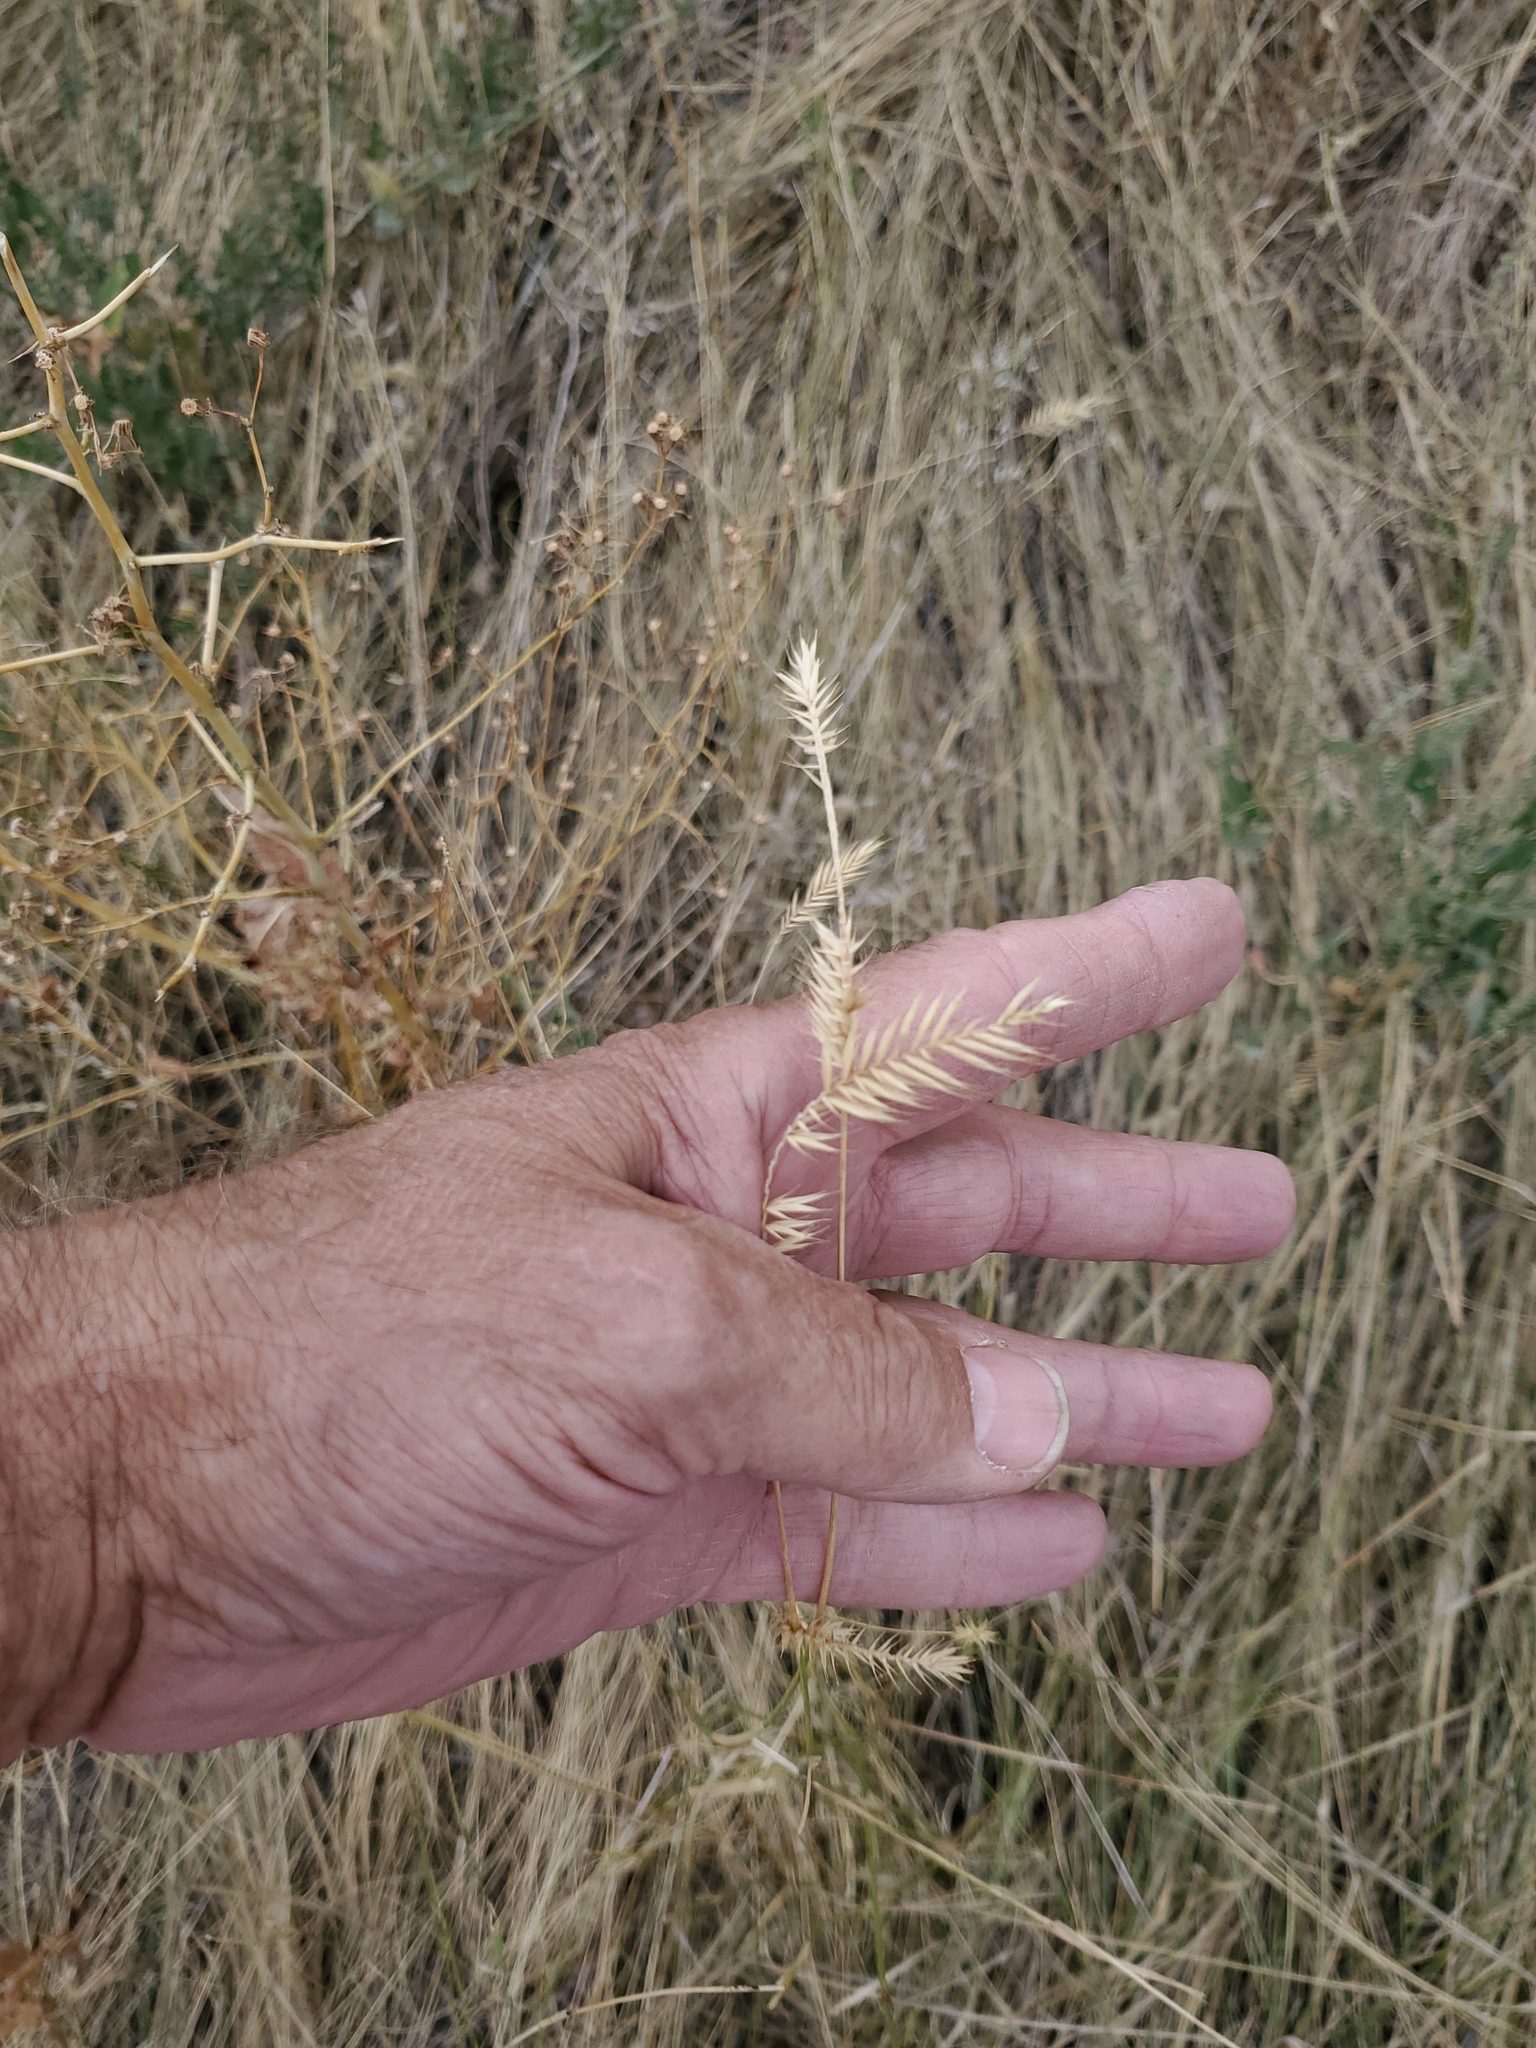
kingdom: Plantae
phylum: Tracheophyta
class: Liliopsida
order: Poales
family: Poaceae
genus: Agropyron
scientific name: Agropyron cristatum
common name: Crested wheatgrass
